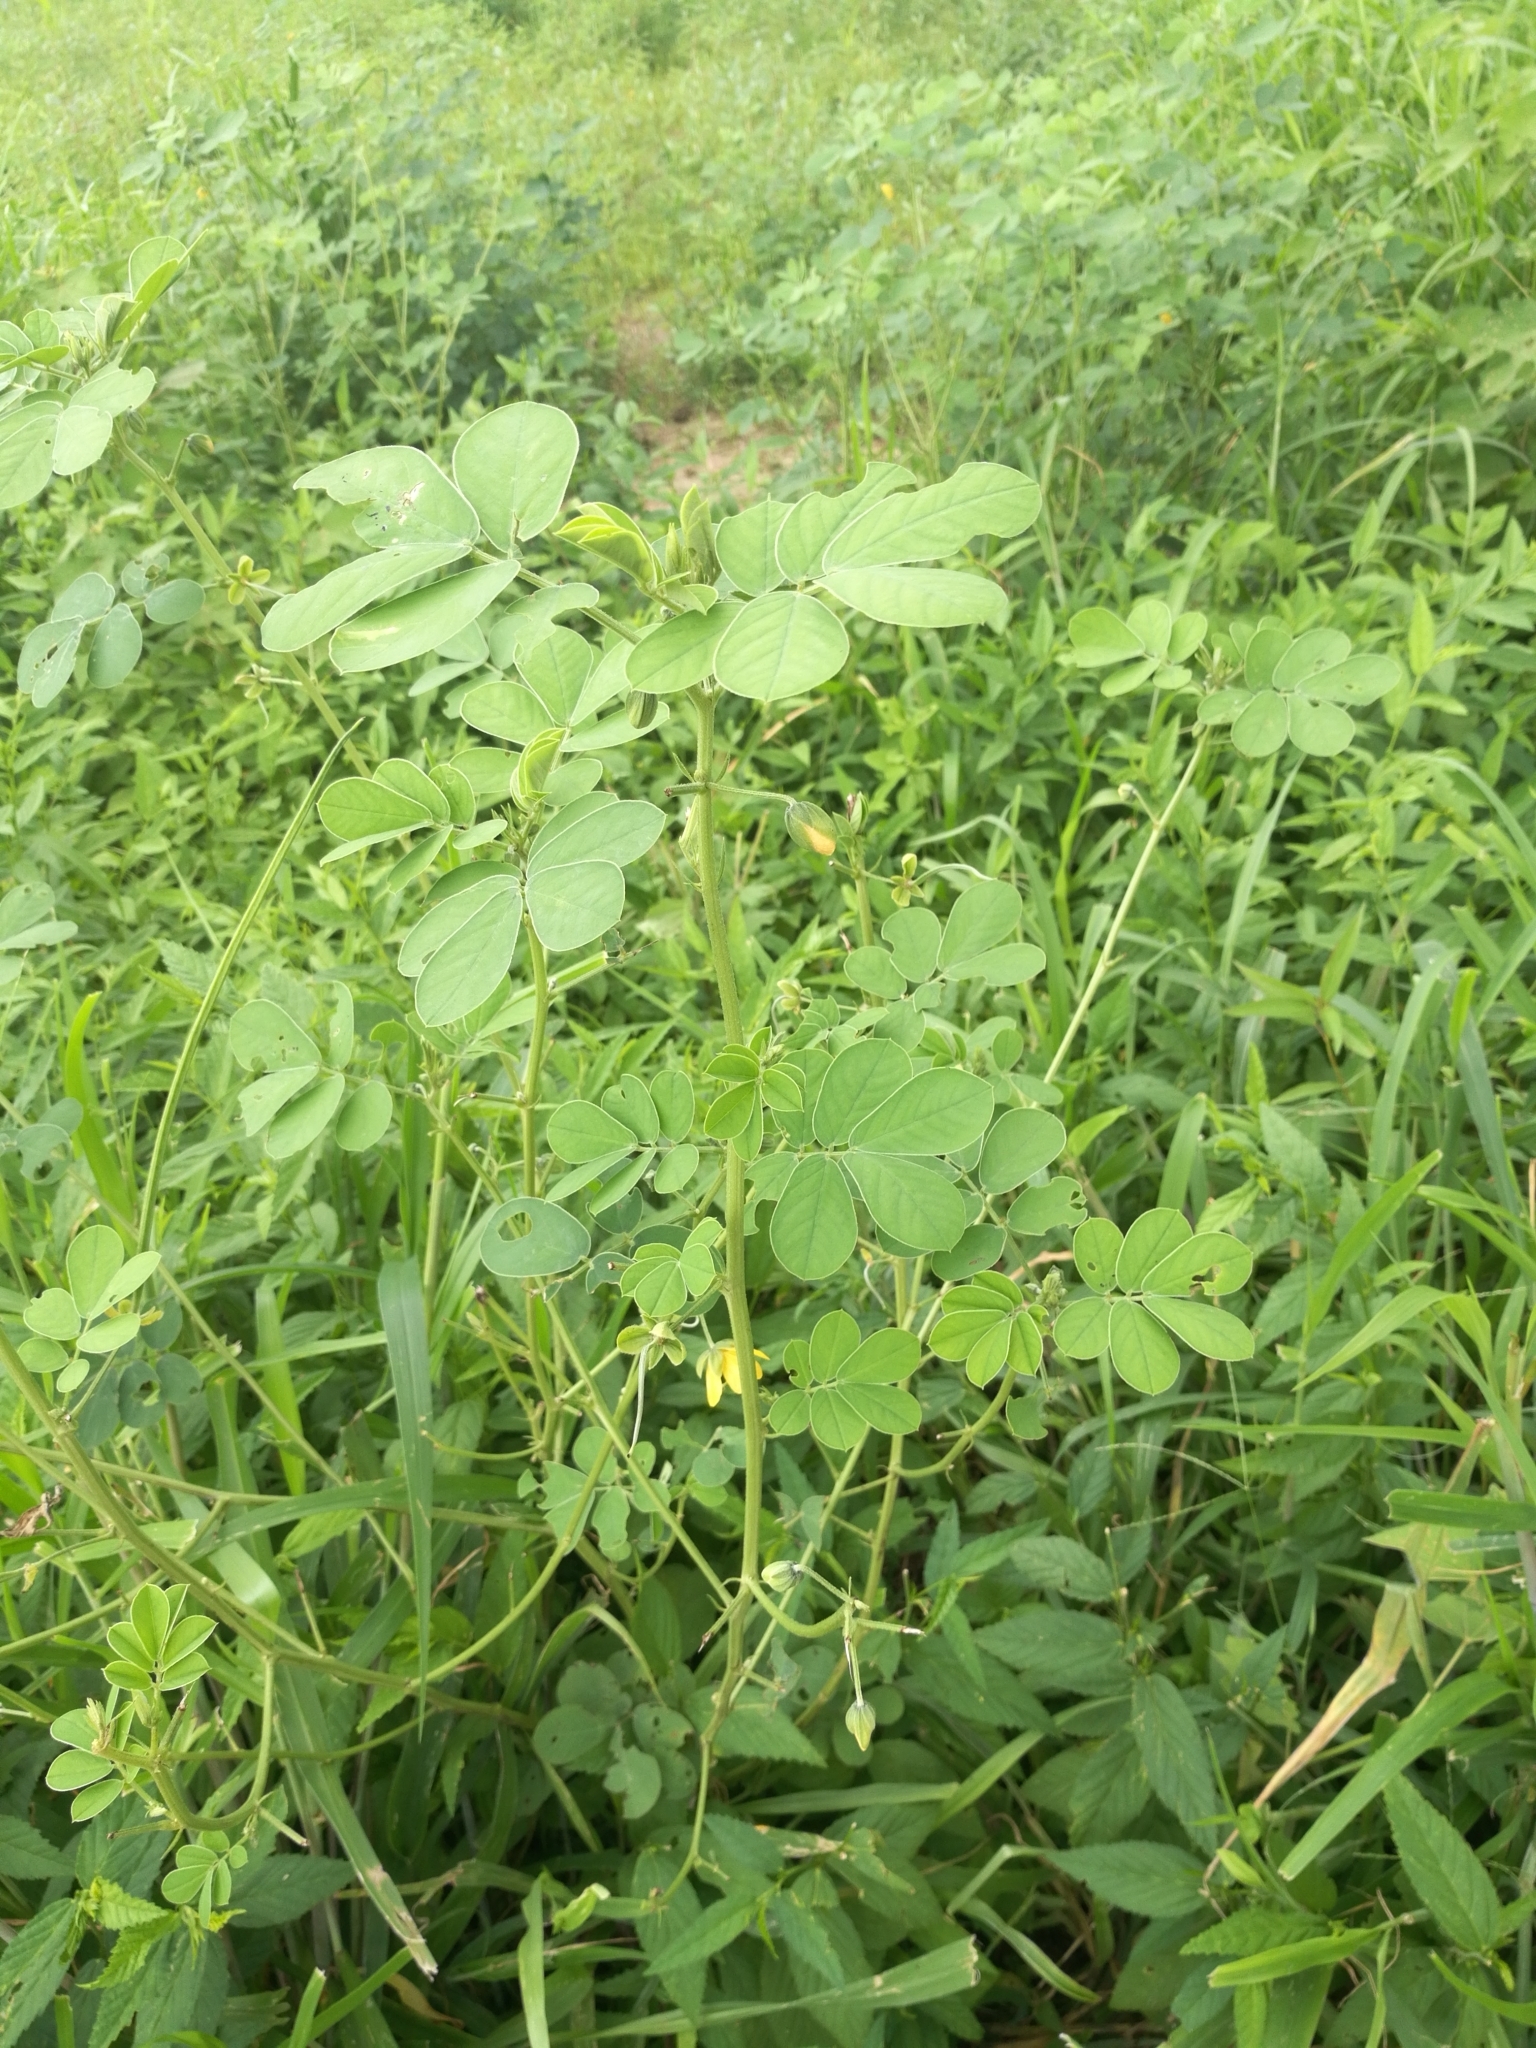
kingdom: Plantae
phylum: Tracheophyta
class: Magnoliopsida
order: Fabales
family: Fabaceae
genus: Senna
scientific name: Senna obtusifolia
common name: Java-bean
